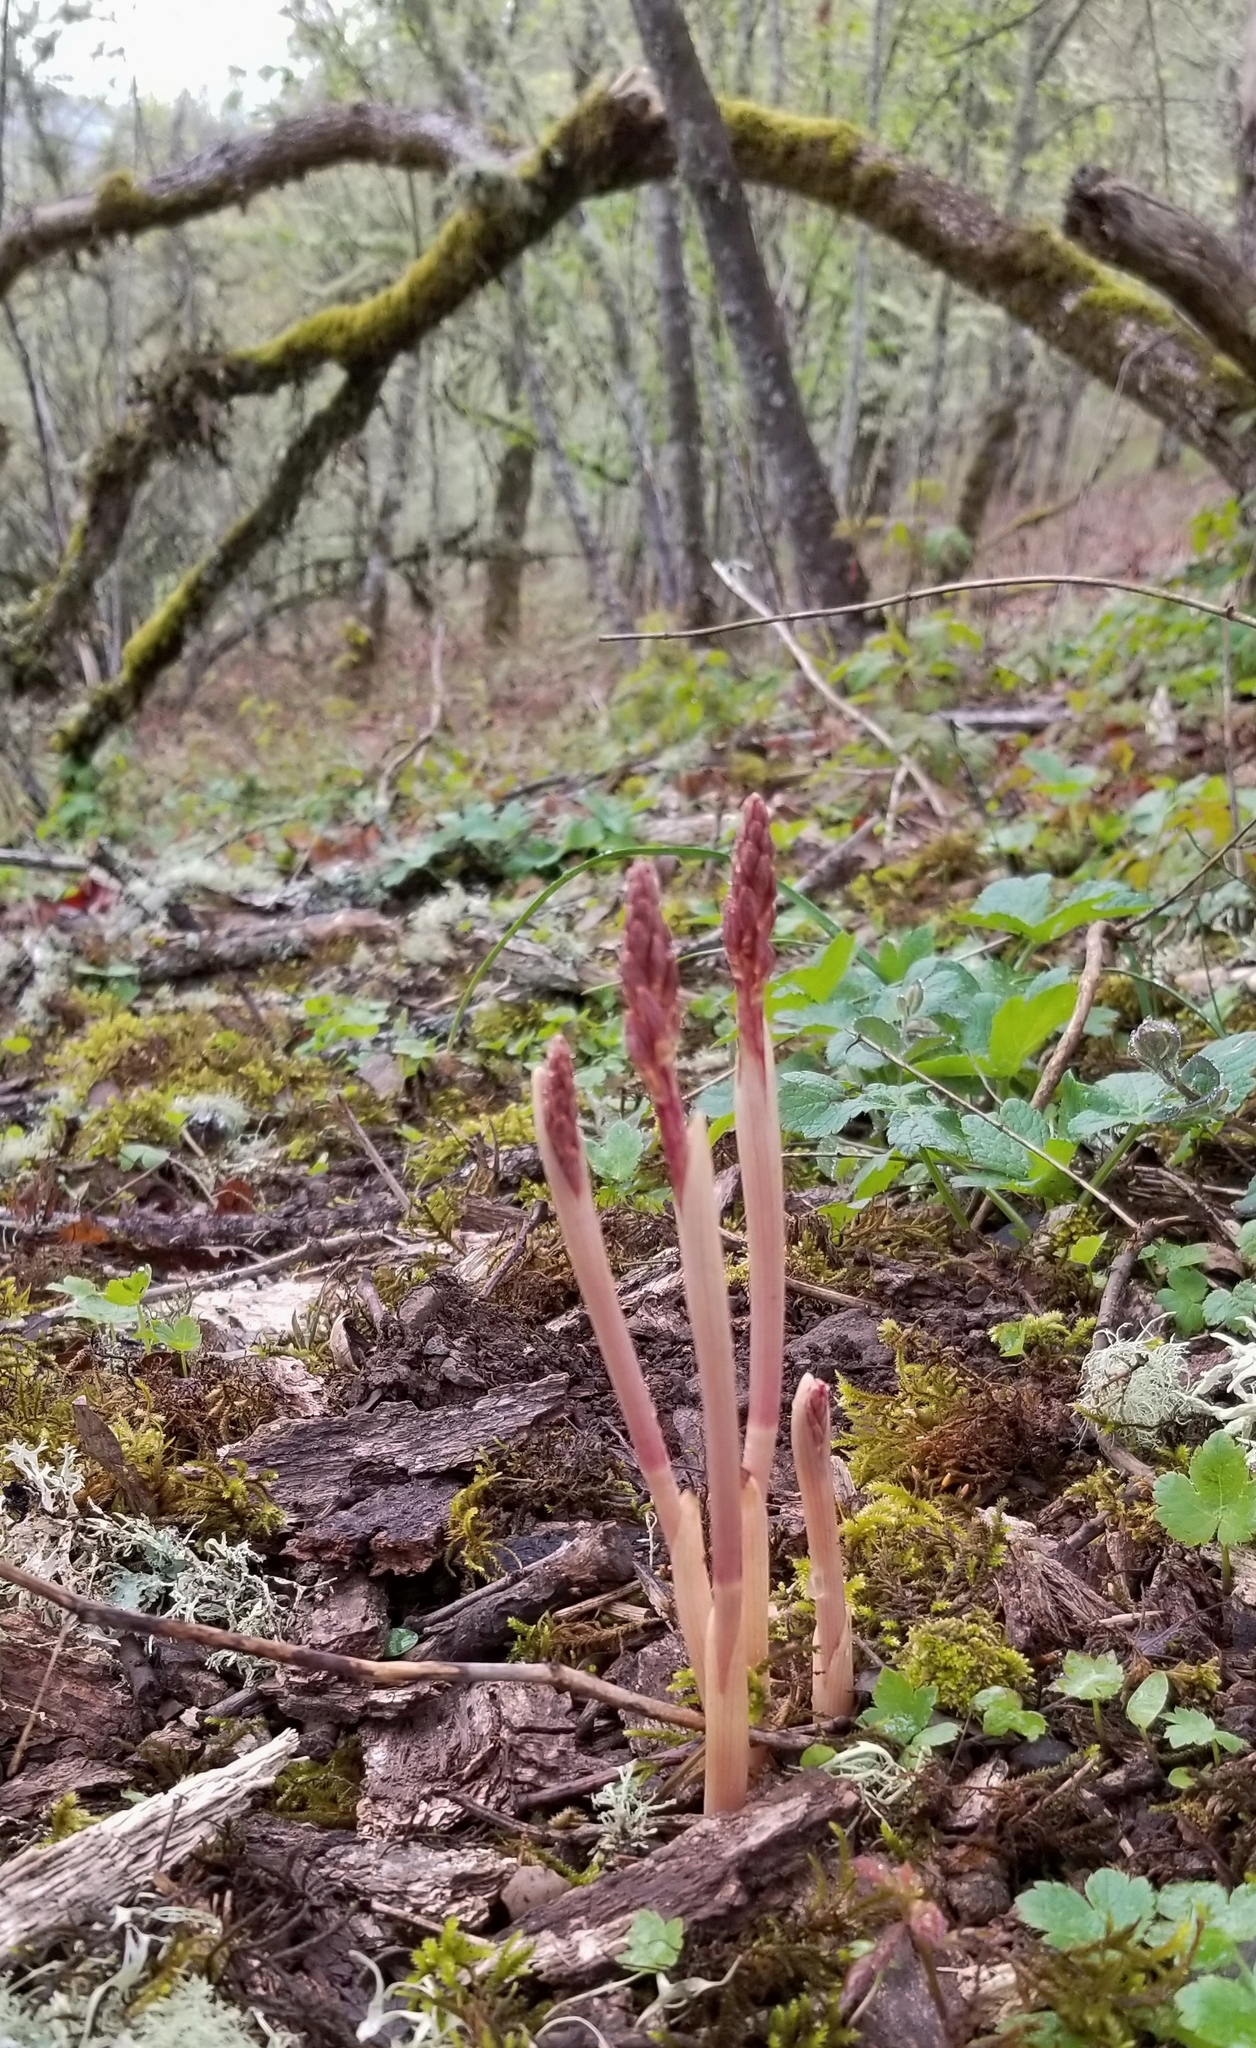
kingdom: Plantae
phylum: Tracheophyta
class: Liliopsida
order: Asparagales
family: Orchidaceae
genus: Corallorhiza
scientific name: Corallorhiza striata
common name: Hooded coralroot
